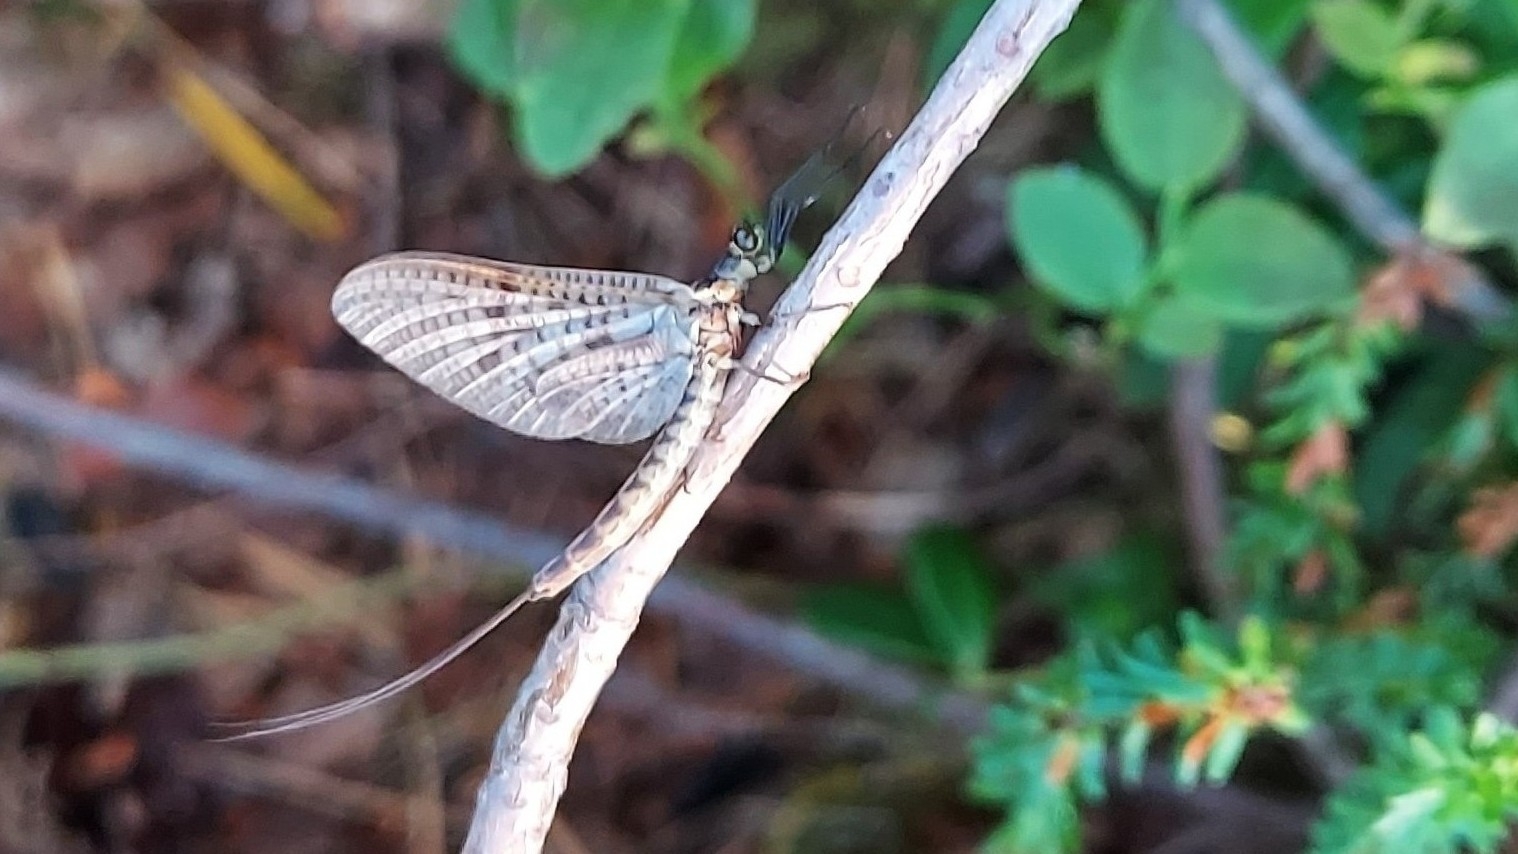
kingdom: Animalia
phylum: Arthropoda
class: Insecta
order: Ephemeroptera
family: Ephemeridae
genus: Ephemera
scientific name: Ephemera vulgata
